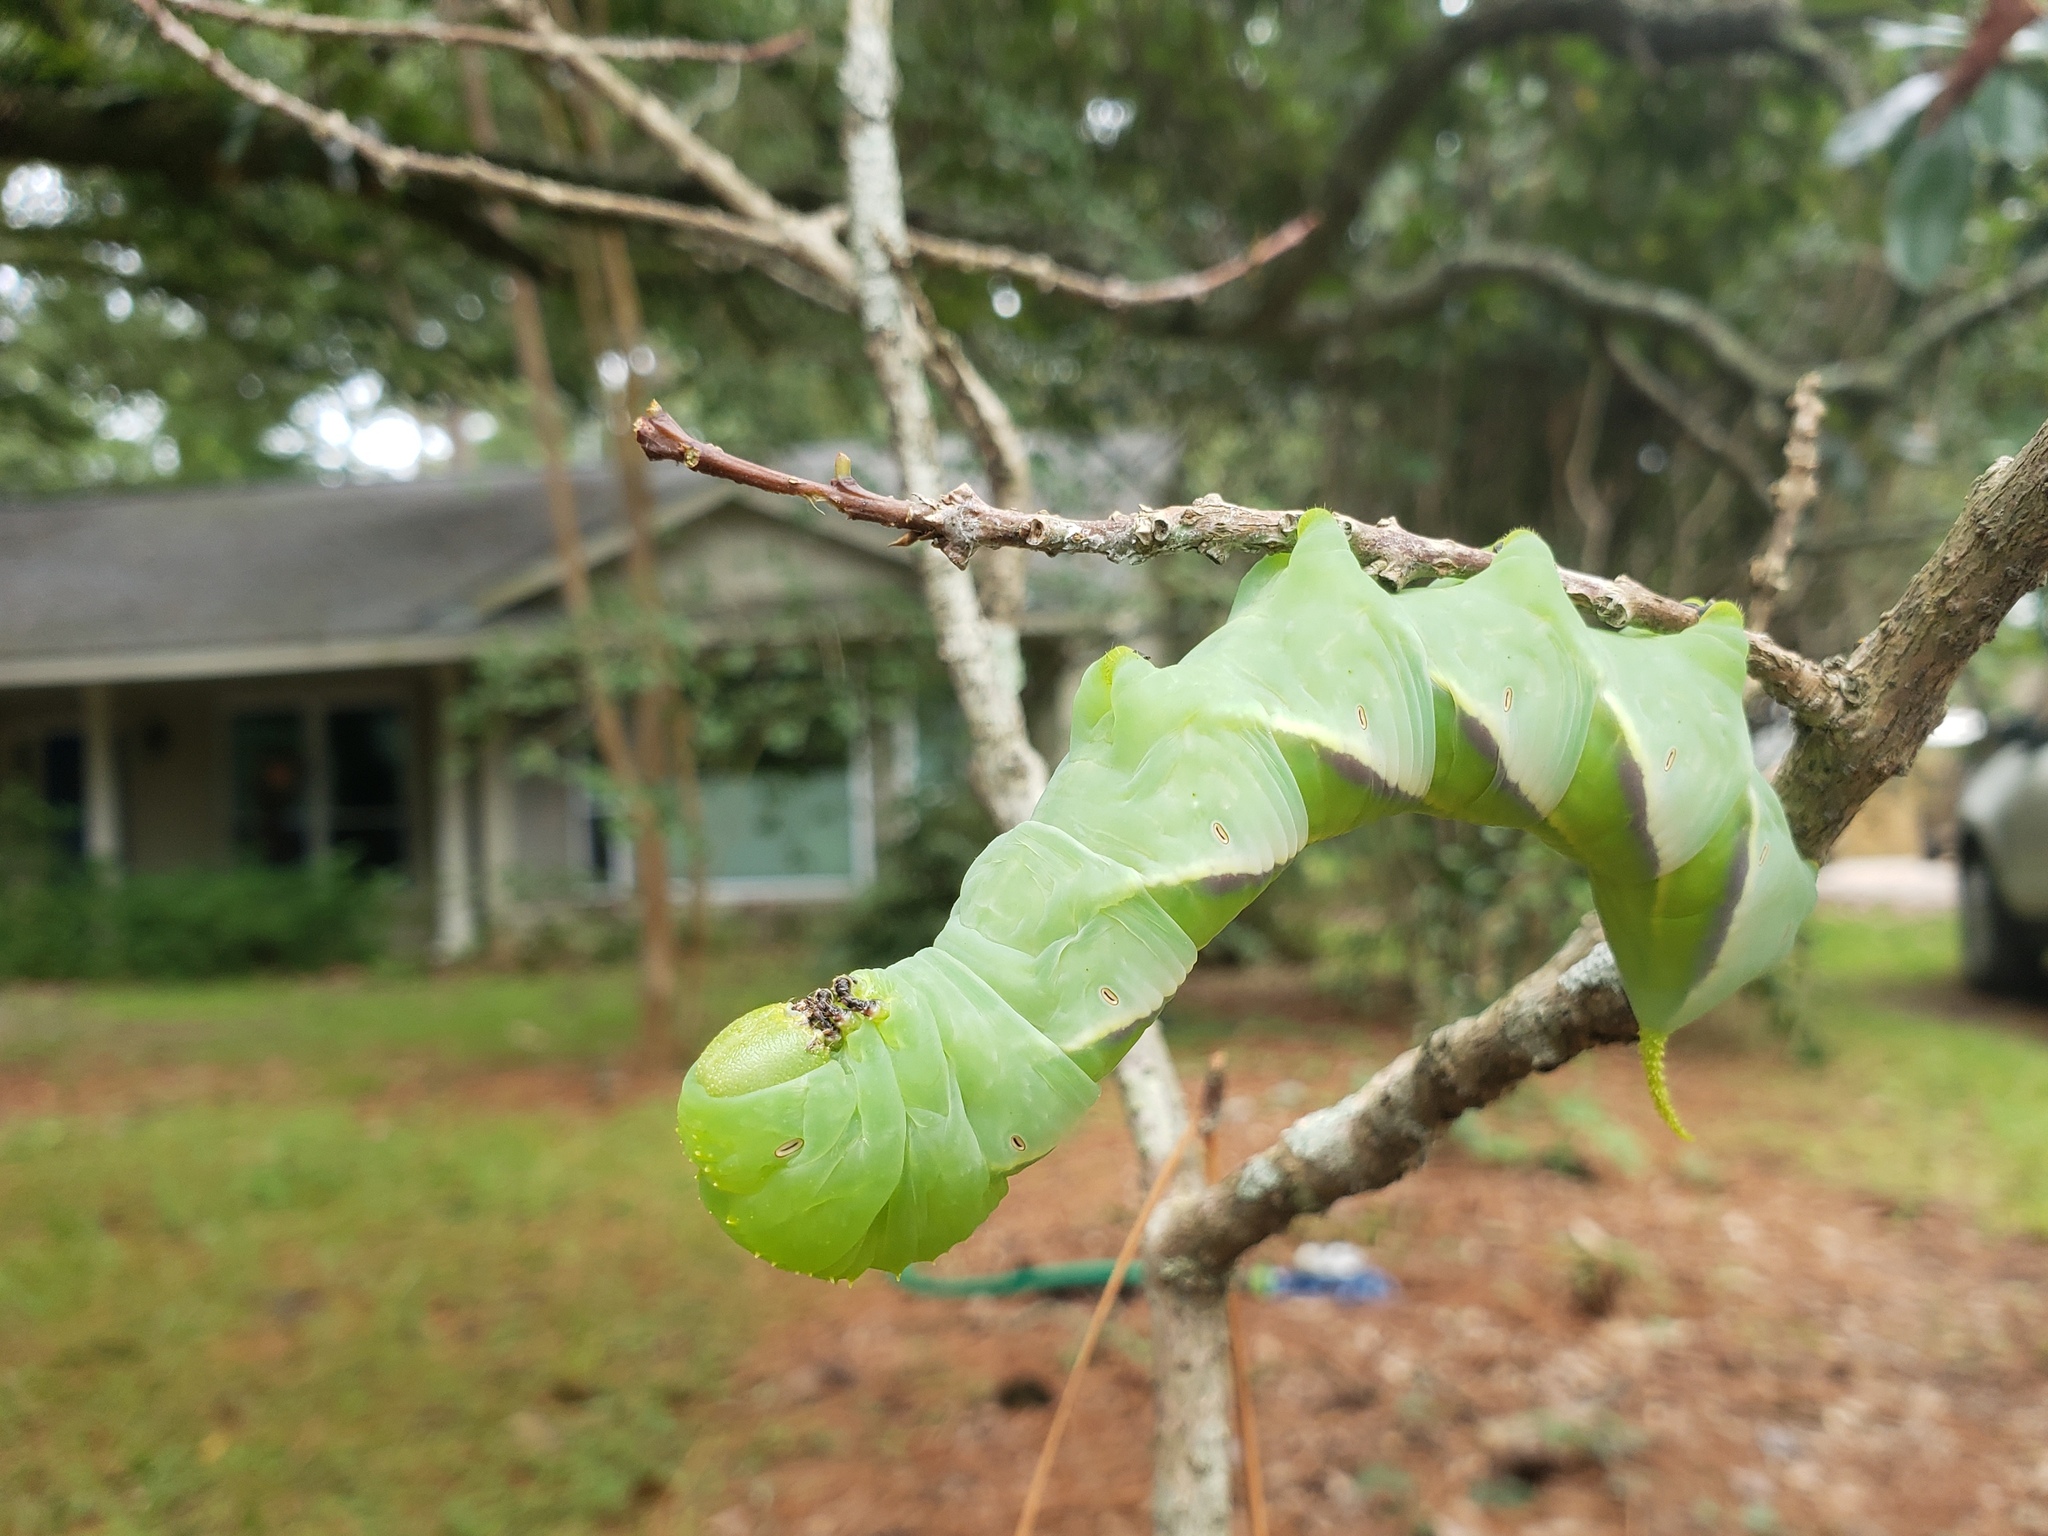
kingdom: Animalia
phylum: Arthropoda
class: Insecta
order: Lepidoptera
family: Sphingidae
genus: Manduca
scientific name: Manduca rustica
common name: Rustic sphinx
